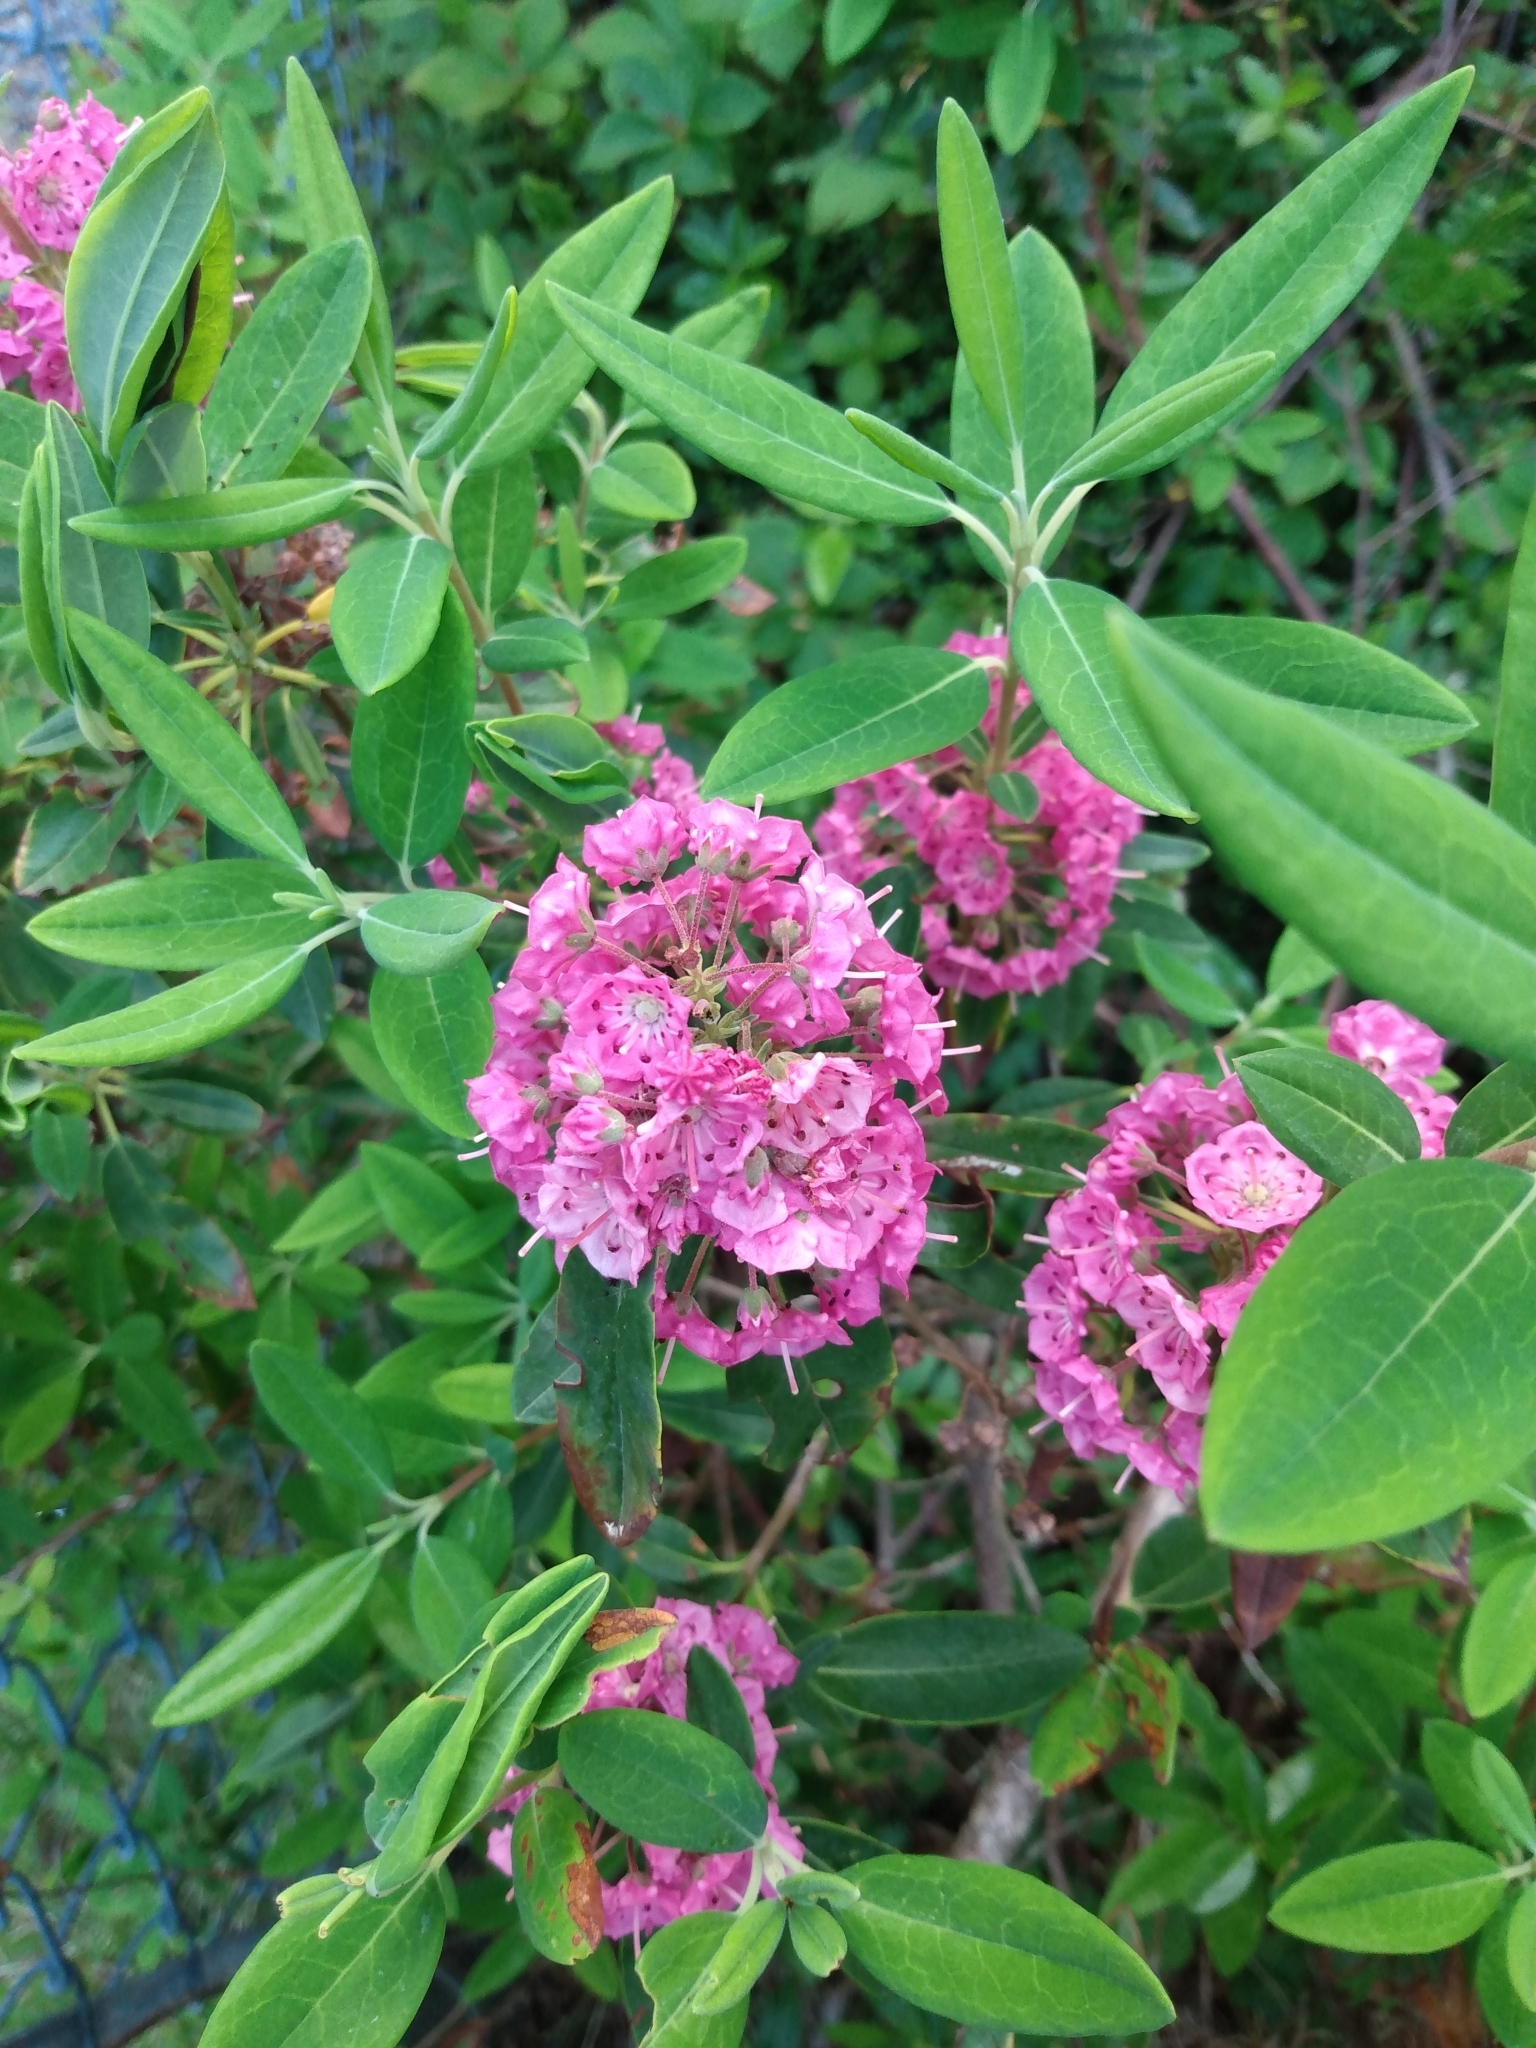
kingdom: Plantae
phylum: Tracheophyta
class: Magnoliopsida
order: Ericales
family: Ericaceae
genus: Kalmia
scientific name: Kalmia angustifolia
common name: Sheep-laurel
